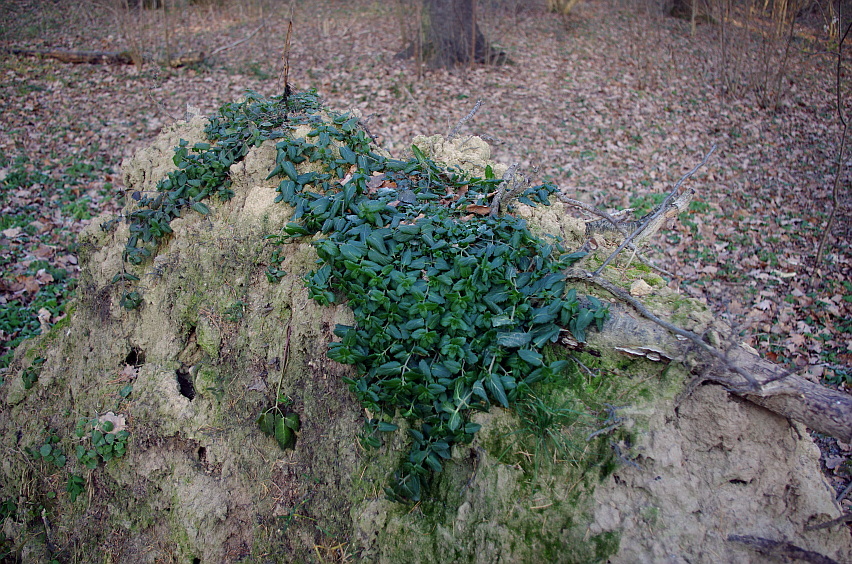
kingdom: Plantae
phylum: Tracheophyta
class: Magnoliopsida
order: Lamiales
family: Plantaginaceae
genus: Veronica
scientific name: Veronica chamaedrys
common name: Germander speedwell
